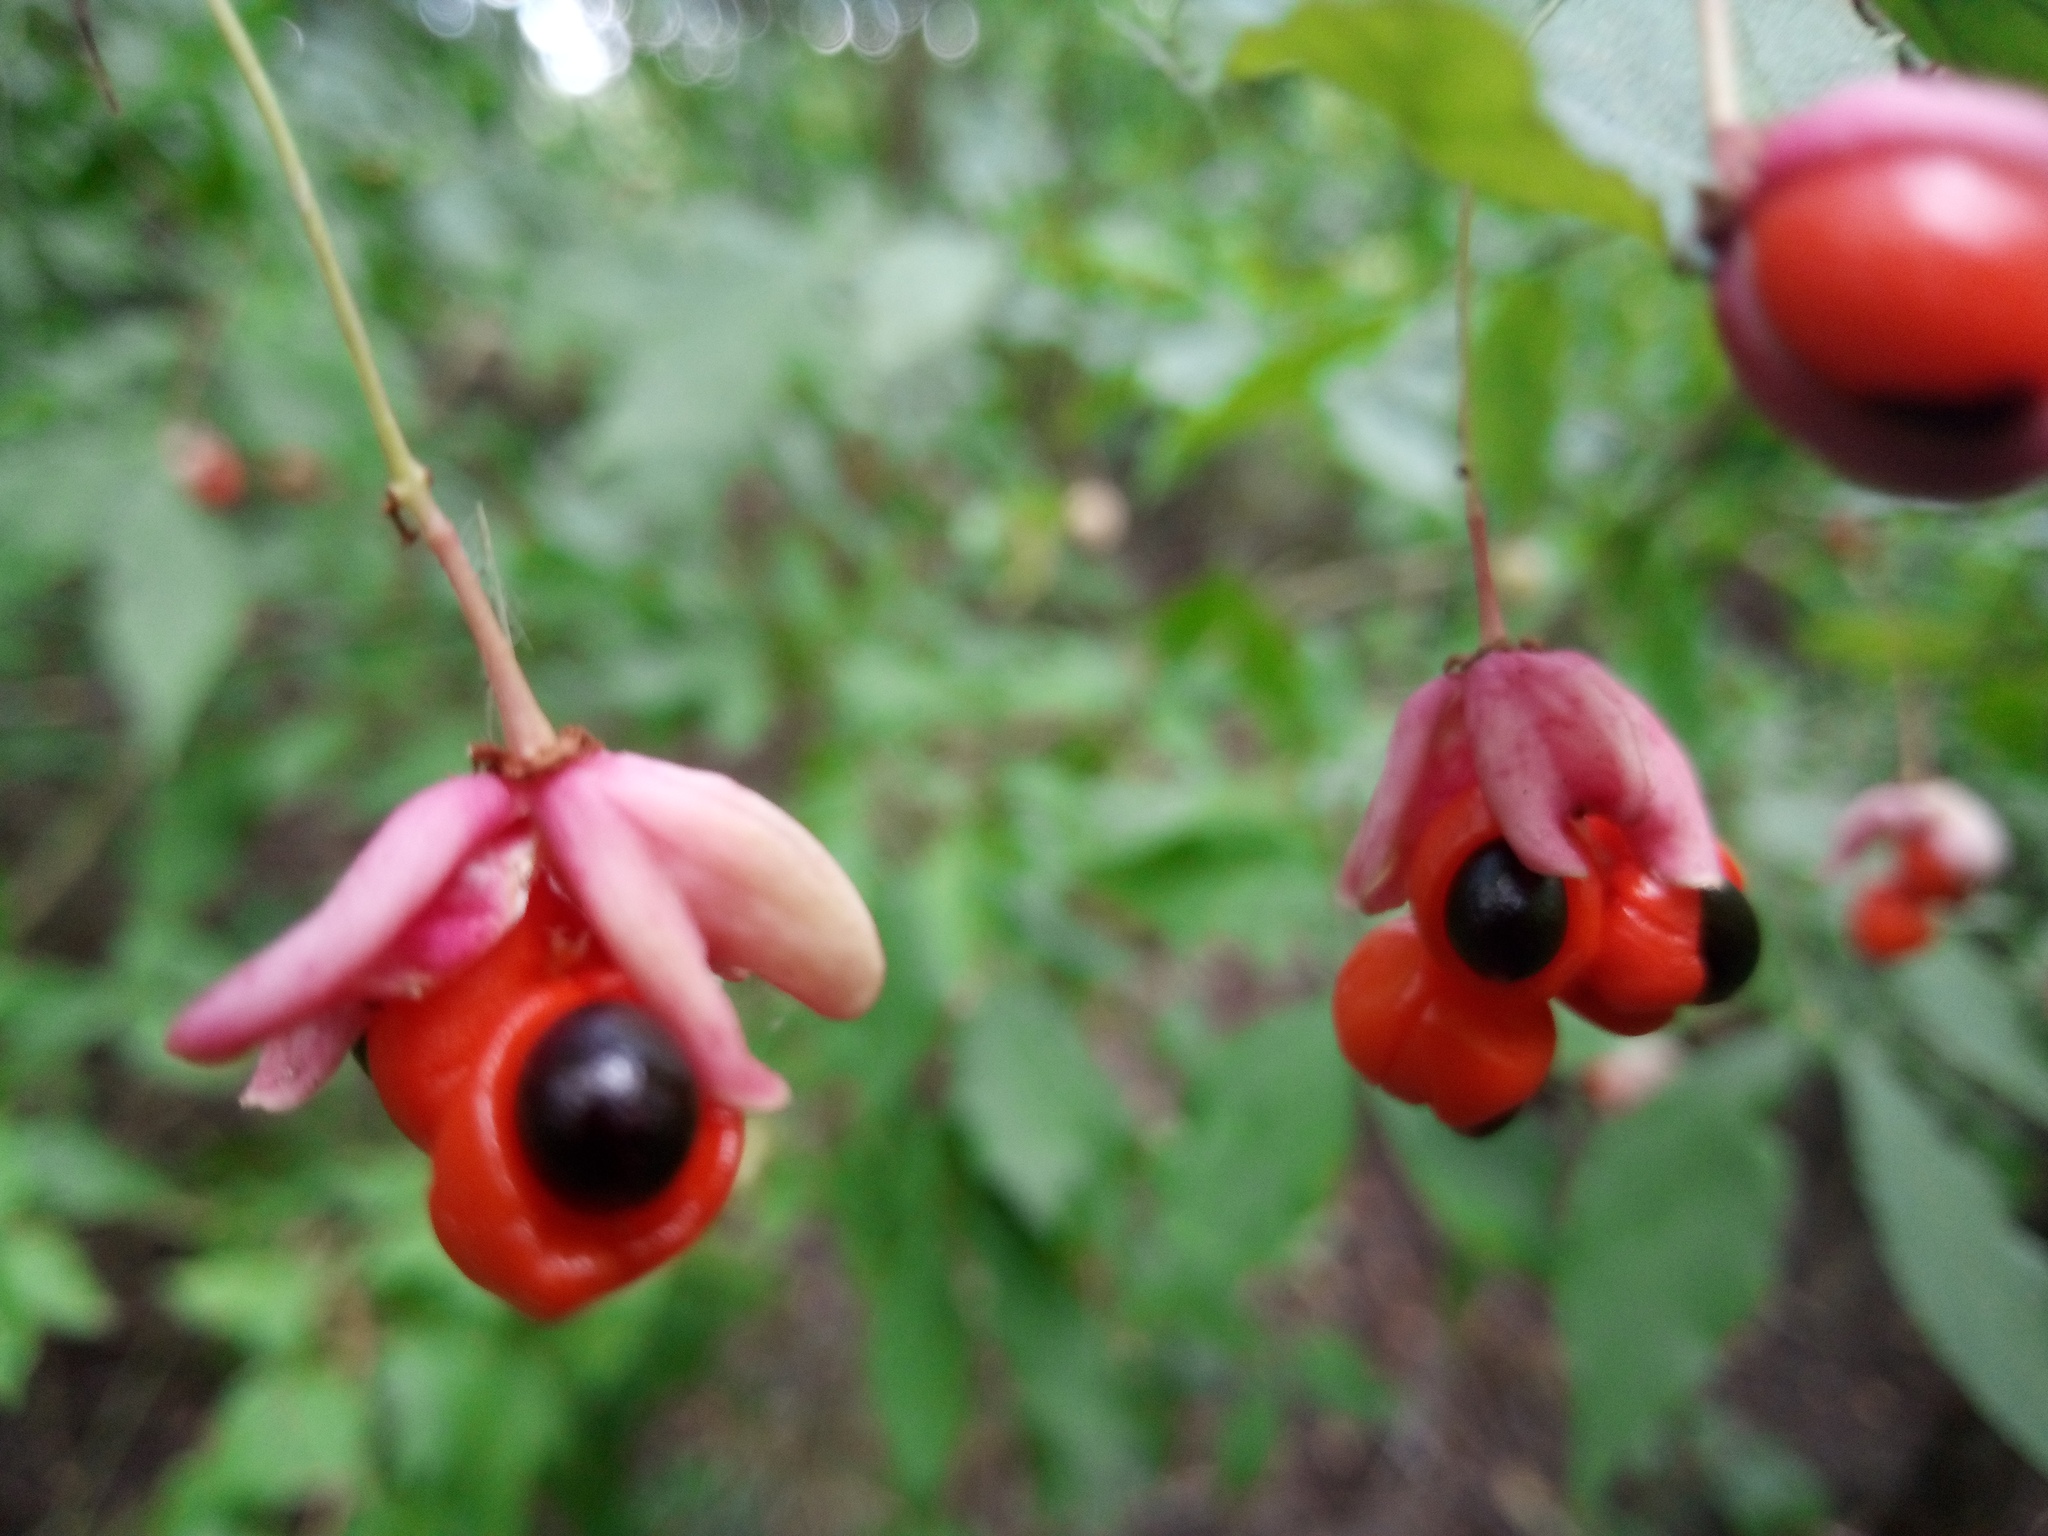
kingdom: Plantae
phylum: Tracheophyta
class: Magnoliopsida
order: Celastrales
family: Celastraceae
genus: Euonymus
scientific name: Euonymus verrucosus
